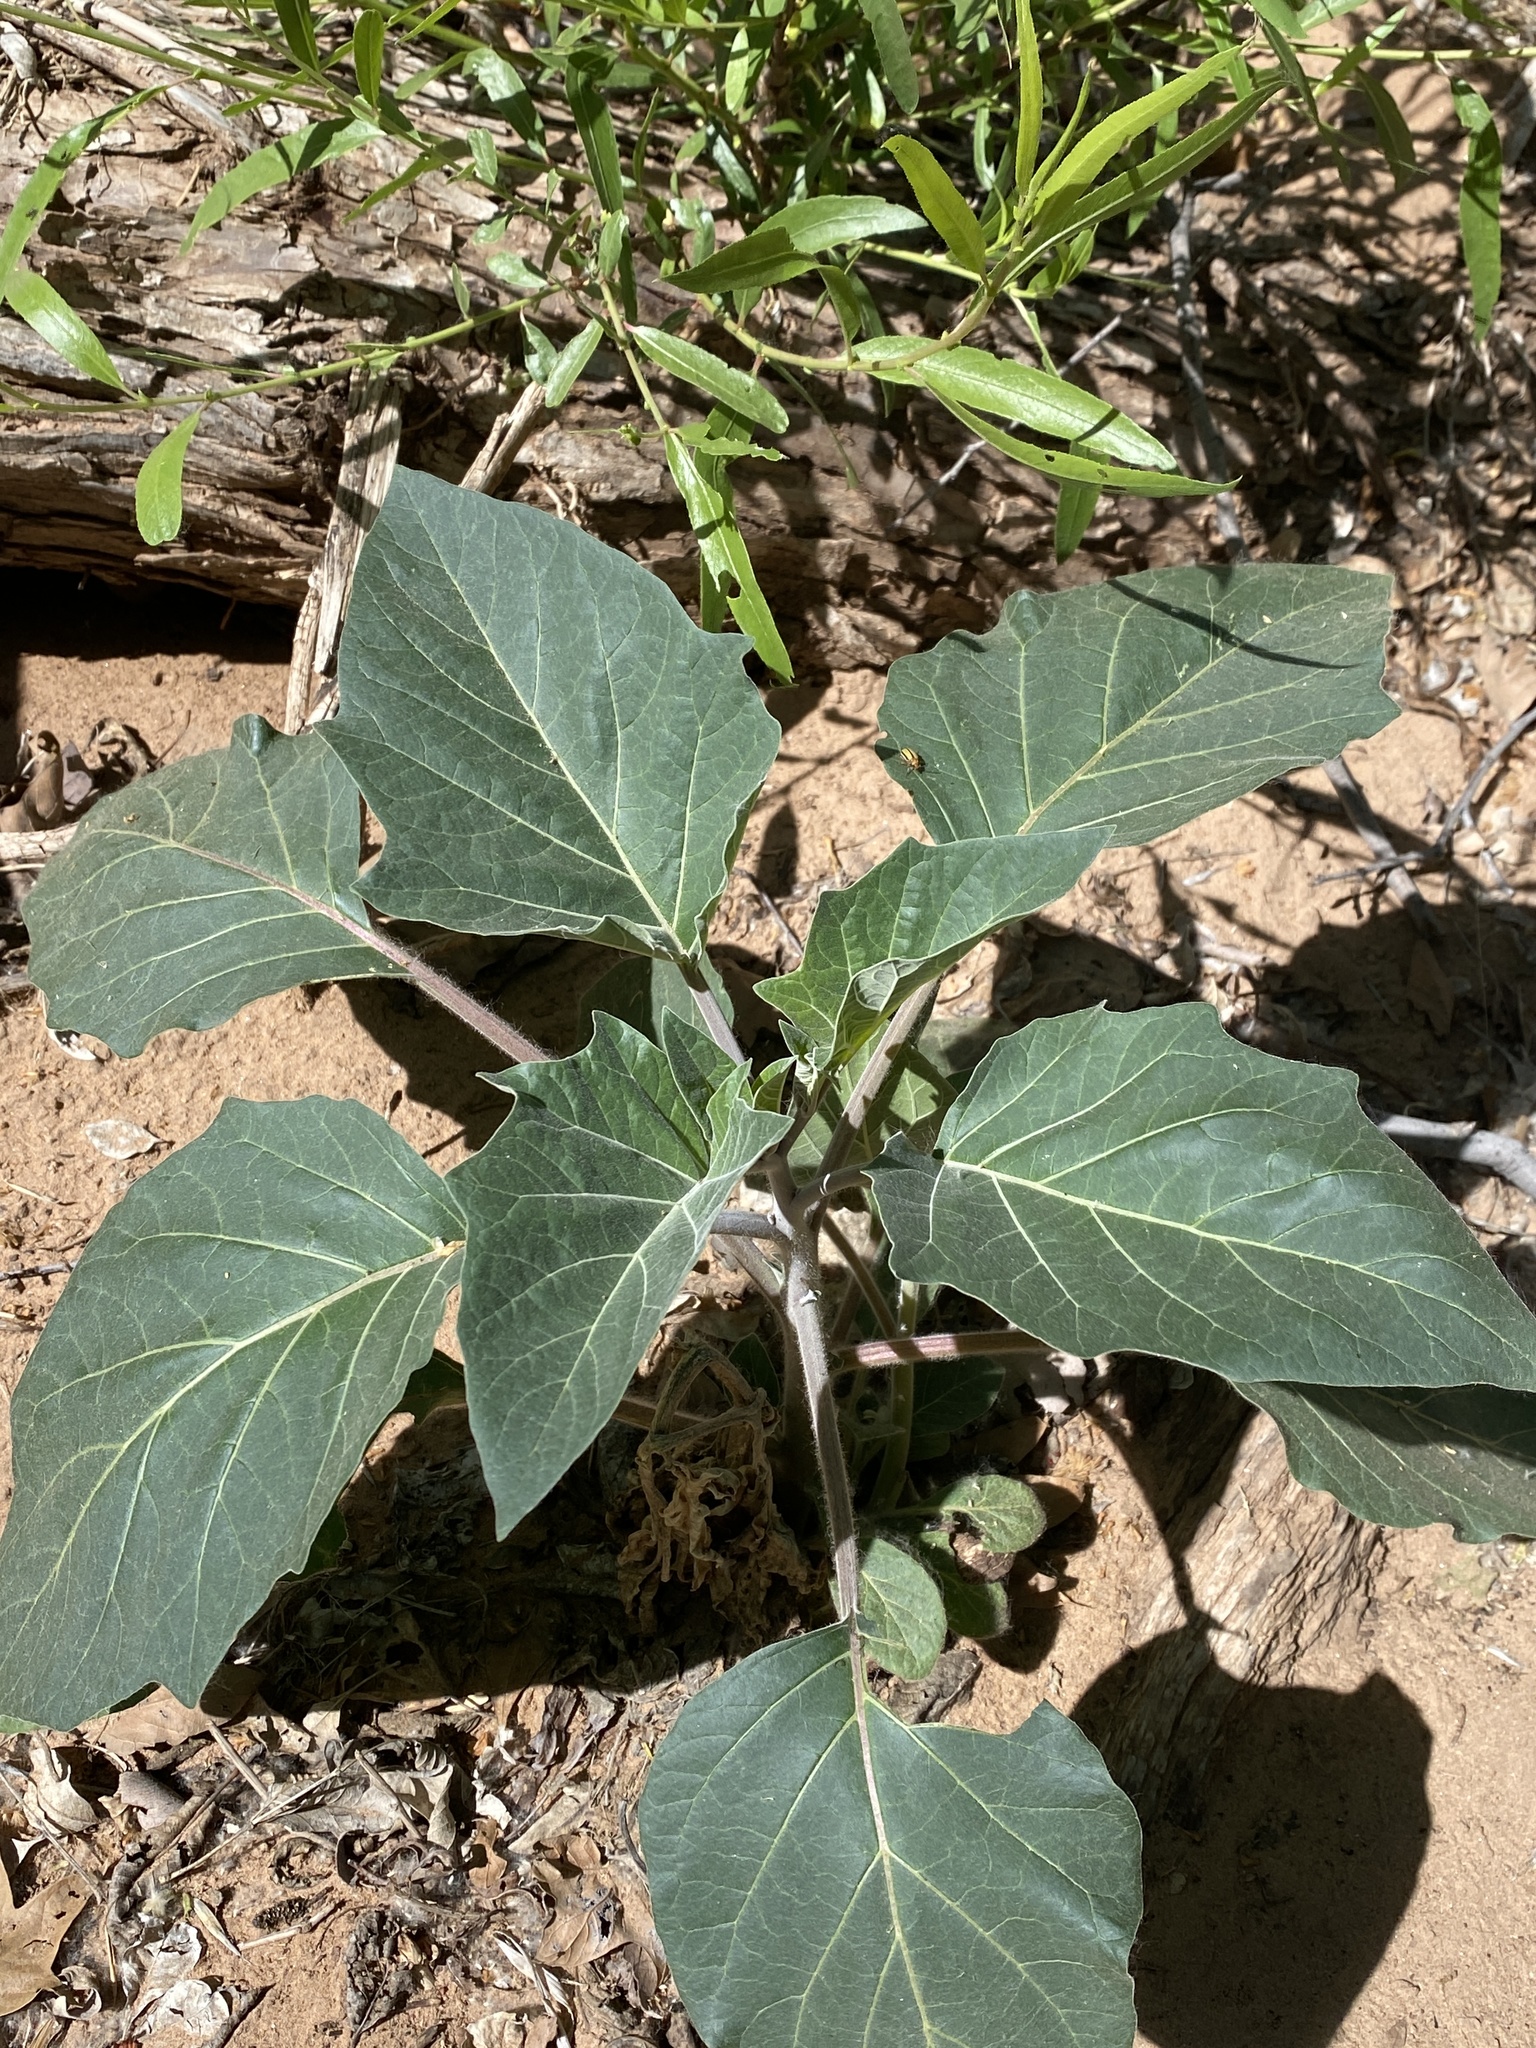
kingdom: Plantae
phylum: Tracheophyta
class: Magnoliopsida
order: Solanales
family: Solanaceae
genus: Datura
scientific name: Datura wrightii
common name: Sacred thorn-apple
